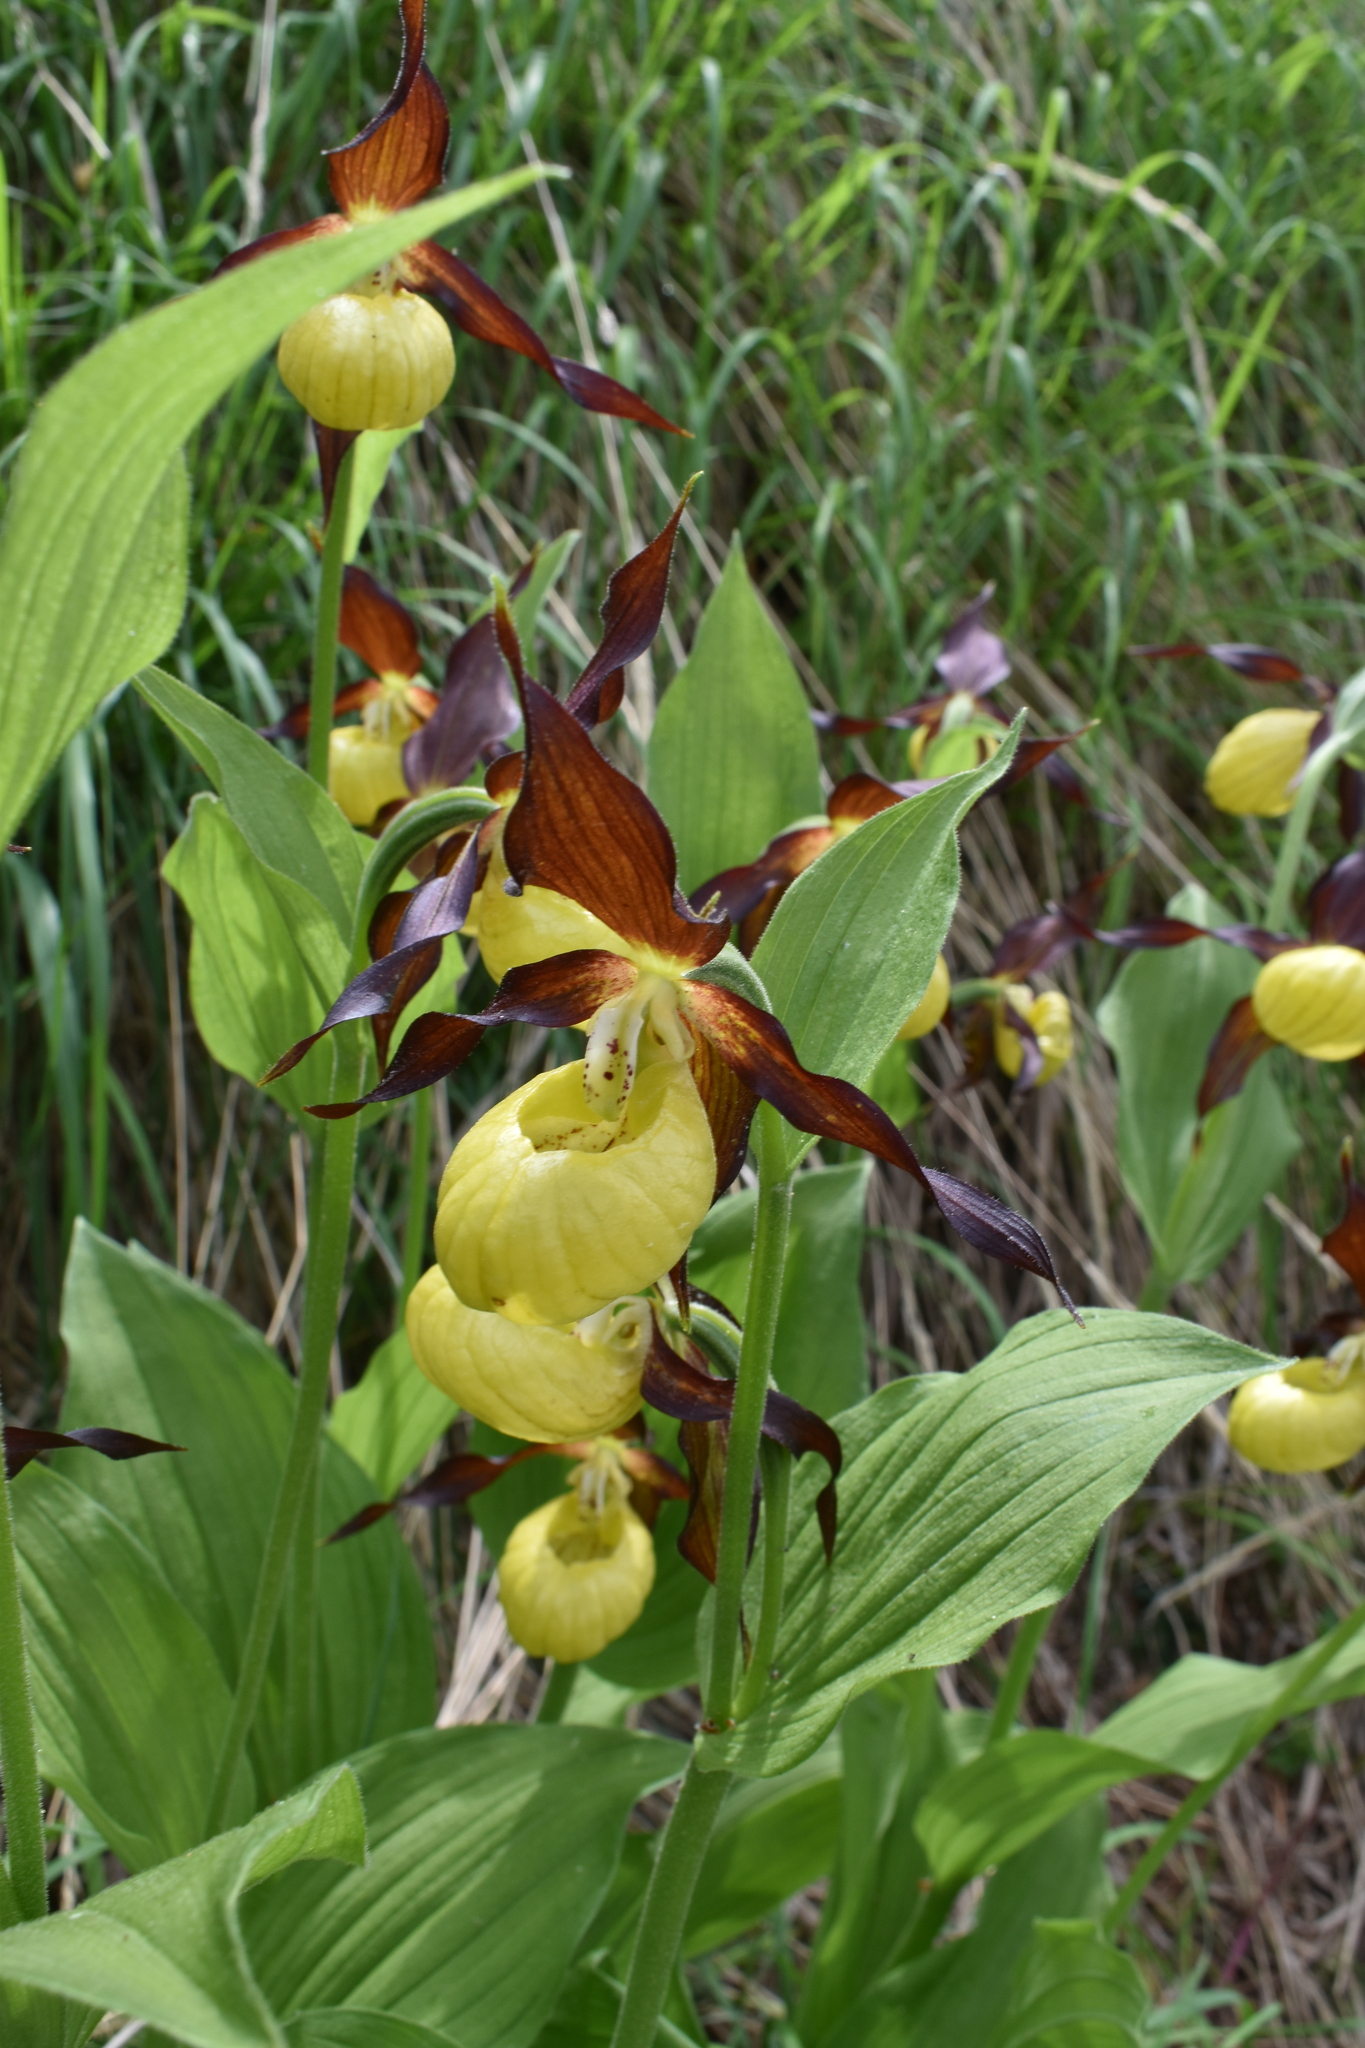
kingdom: Plantae
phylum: Tracheophyta
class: Liliopsida
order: Asparagales
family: Orchidaceae
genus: Cypripedium
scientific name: Cypripedium calceolus
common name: Lady's-slipper
